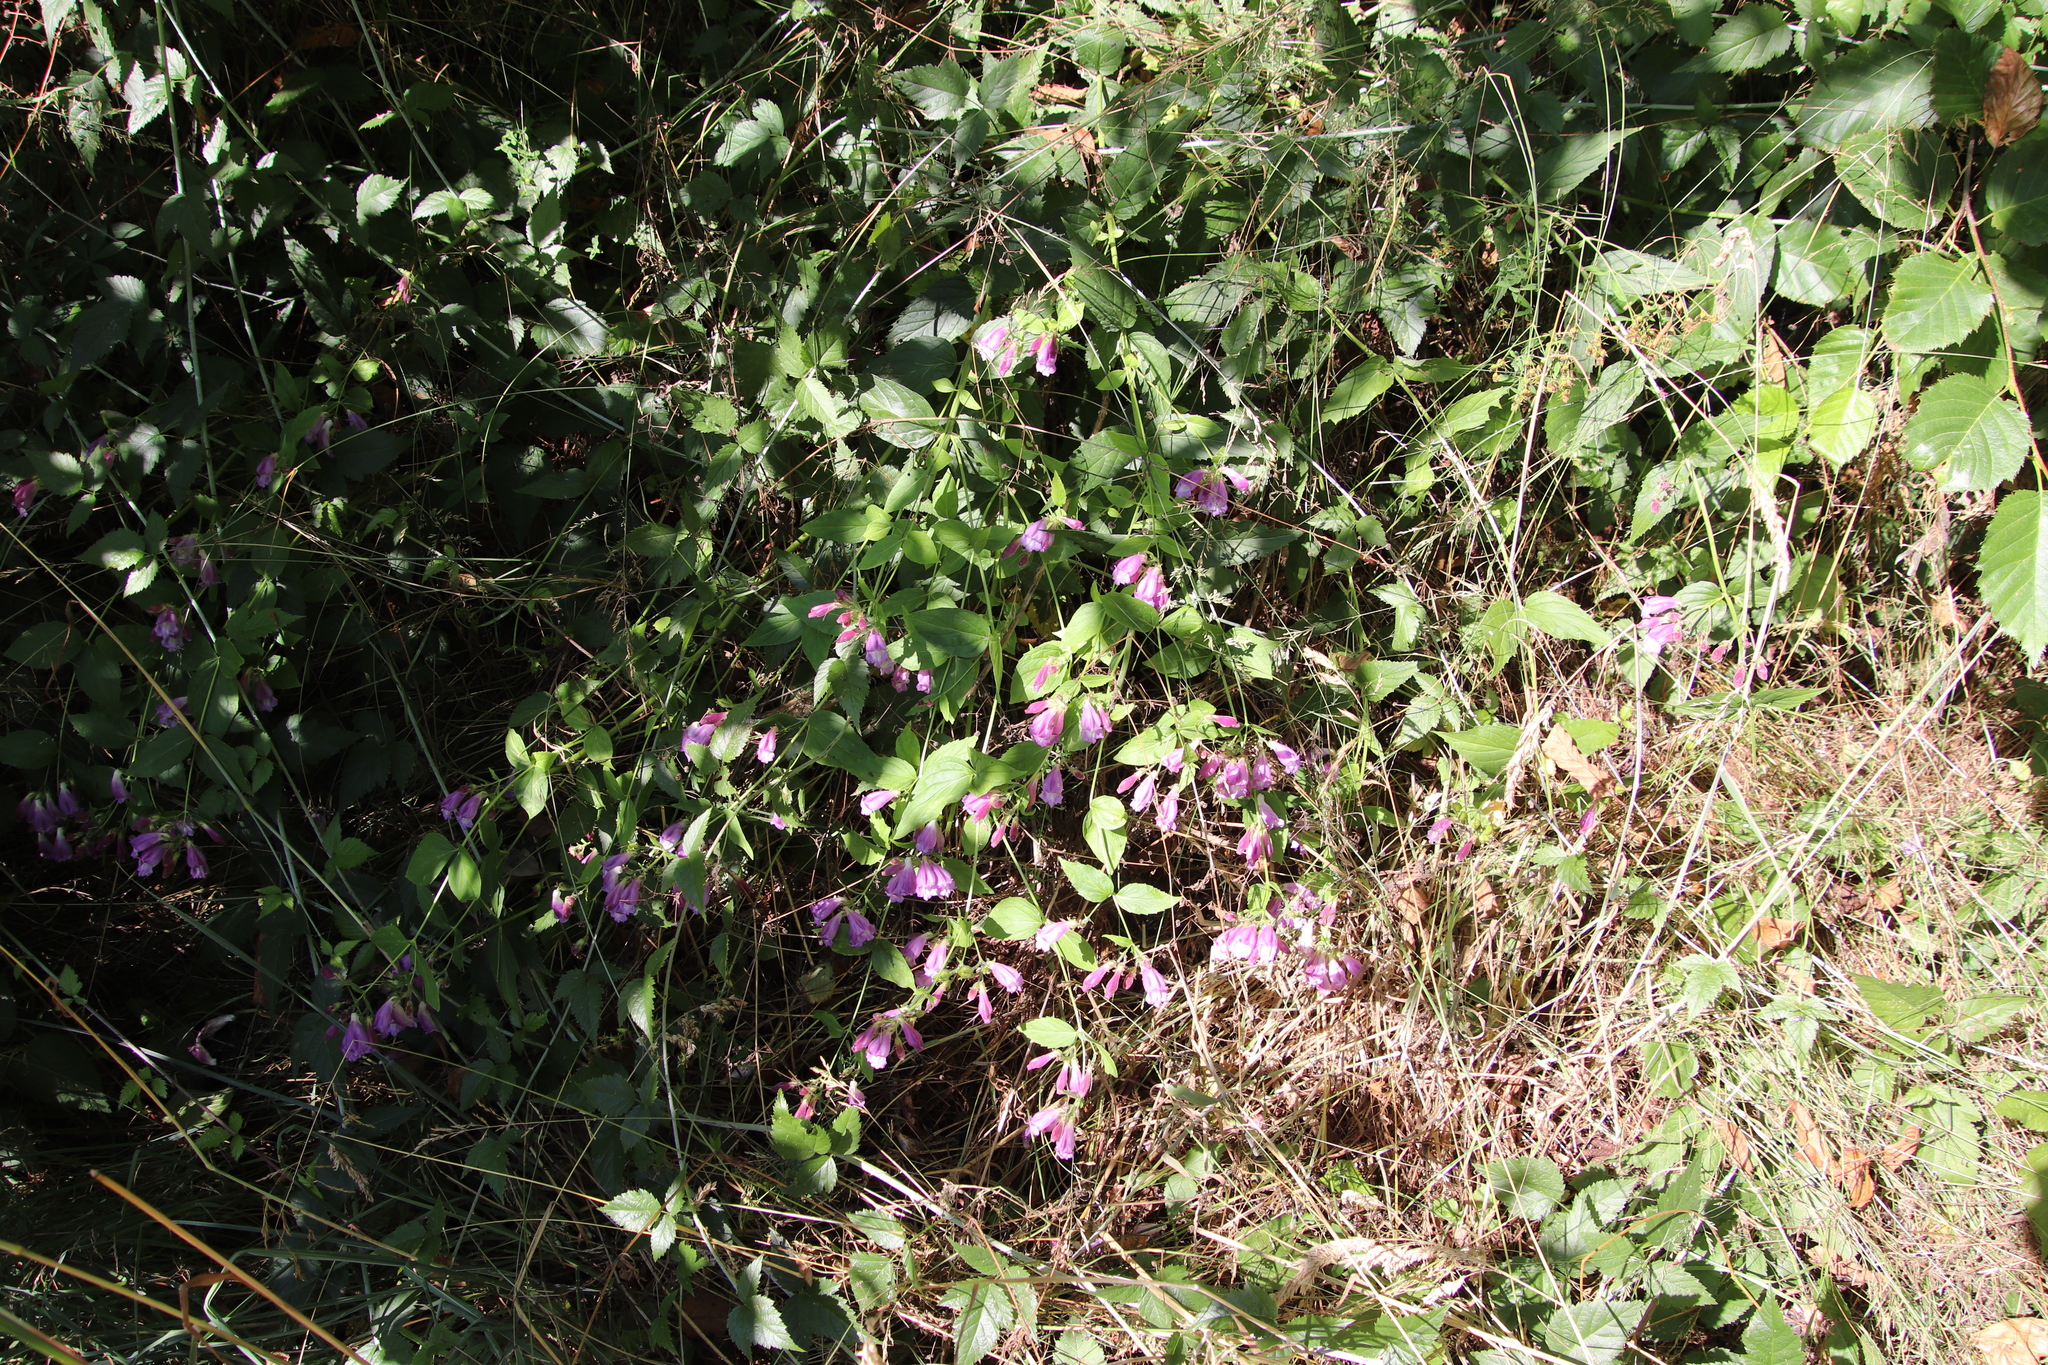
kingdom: Plantae
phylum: Tracheophyta
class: Magnoliopsida
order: Lamiales
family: Plantaginaceae
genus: Nothochelone
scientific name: Nothochelone nemorosa
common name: Woodland beardtongue
